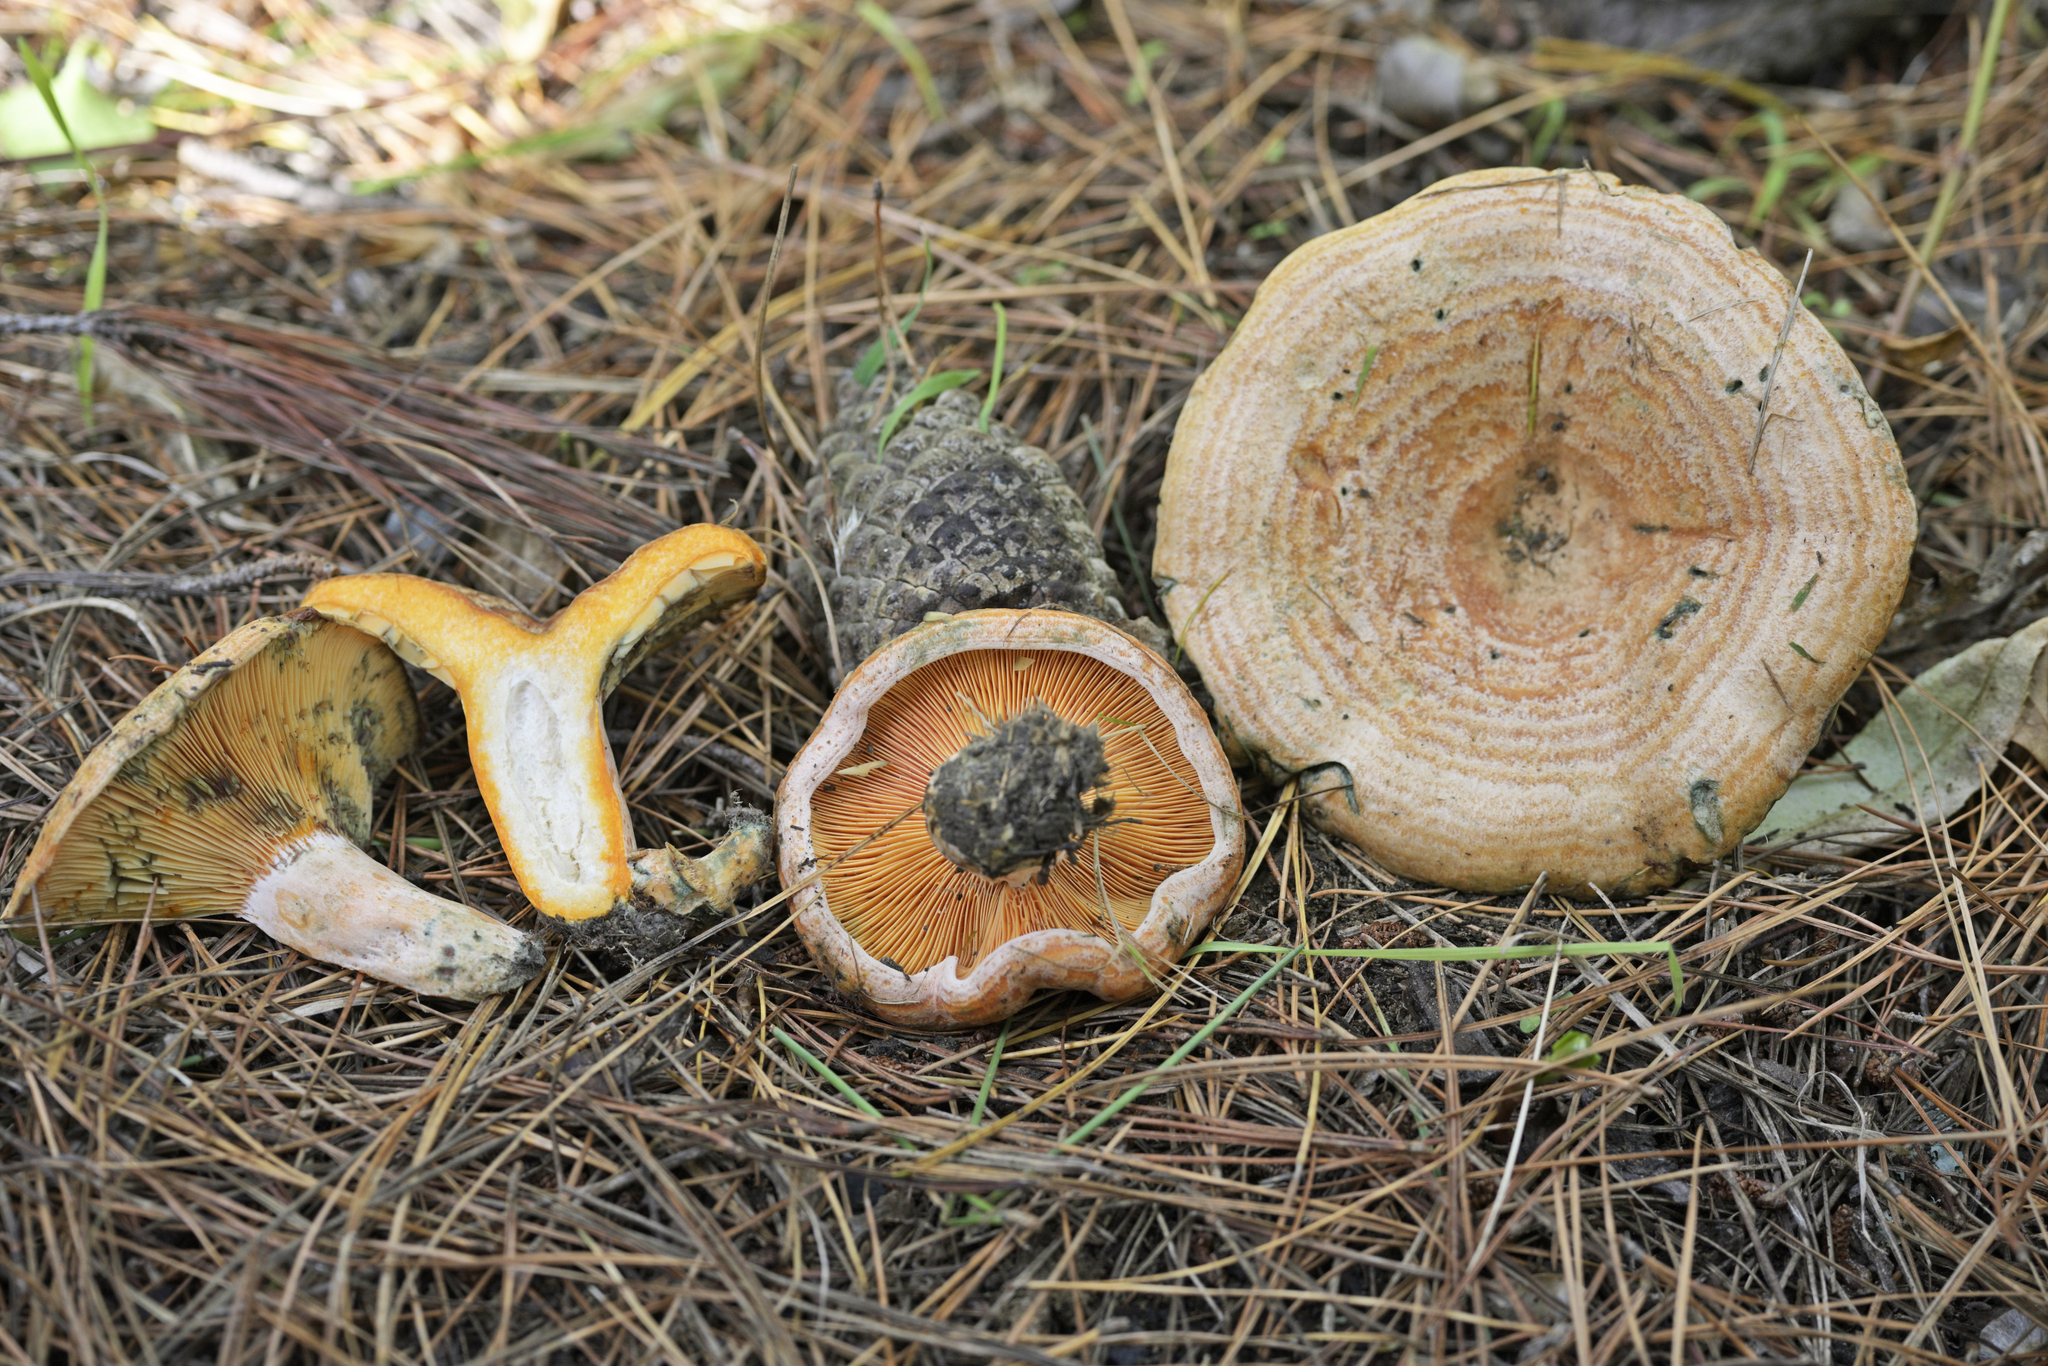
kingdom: Fungi
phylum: Basidiomycota
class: Agaricomycetes
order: Russulales
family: Russulaceae
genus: Lactarius
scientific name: Lactarius deliciosus
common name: Saffron milk-cap
